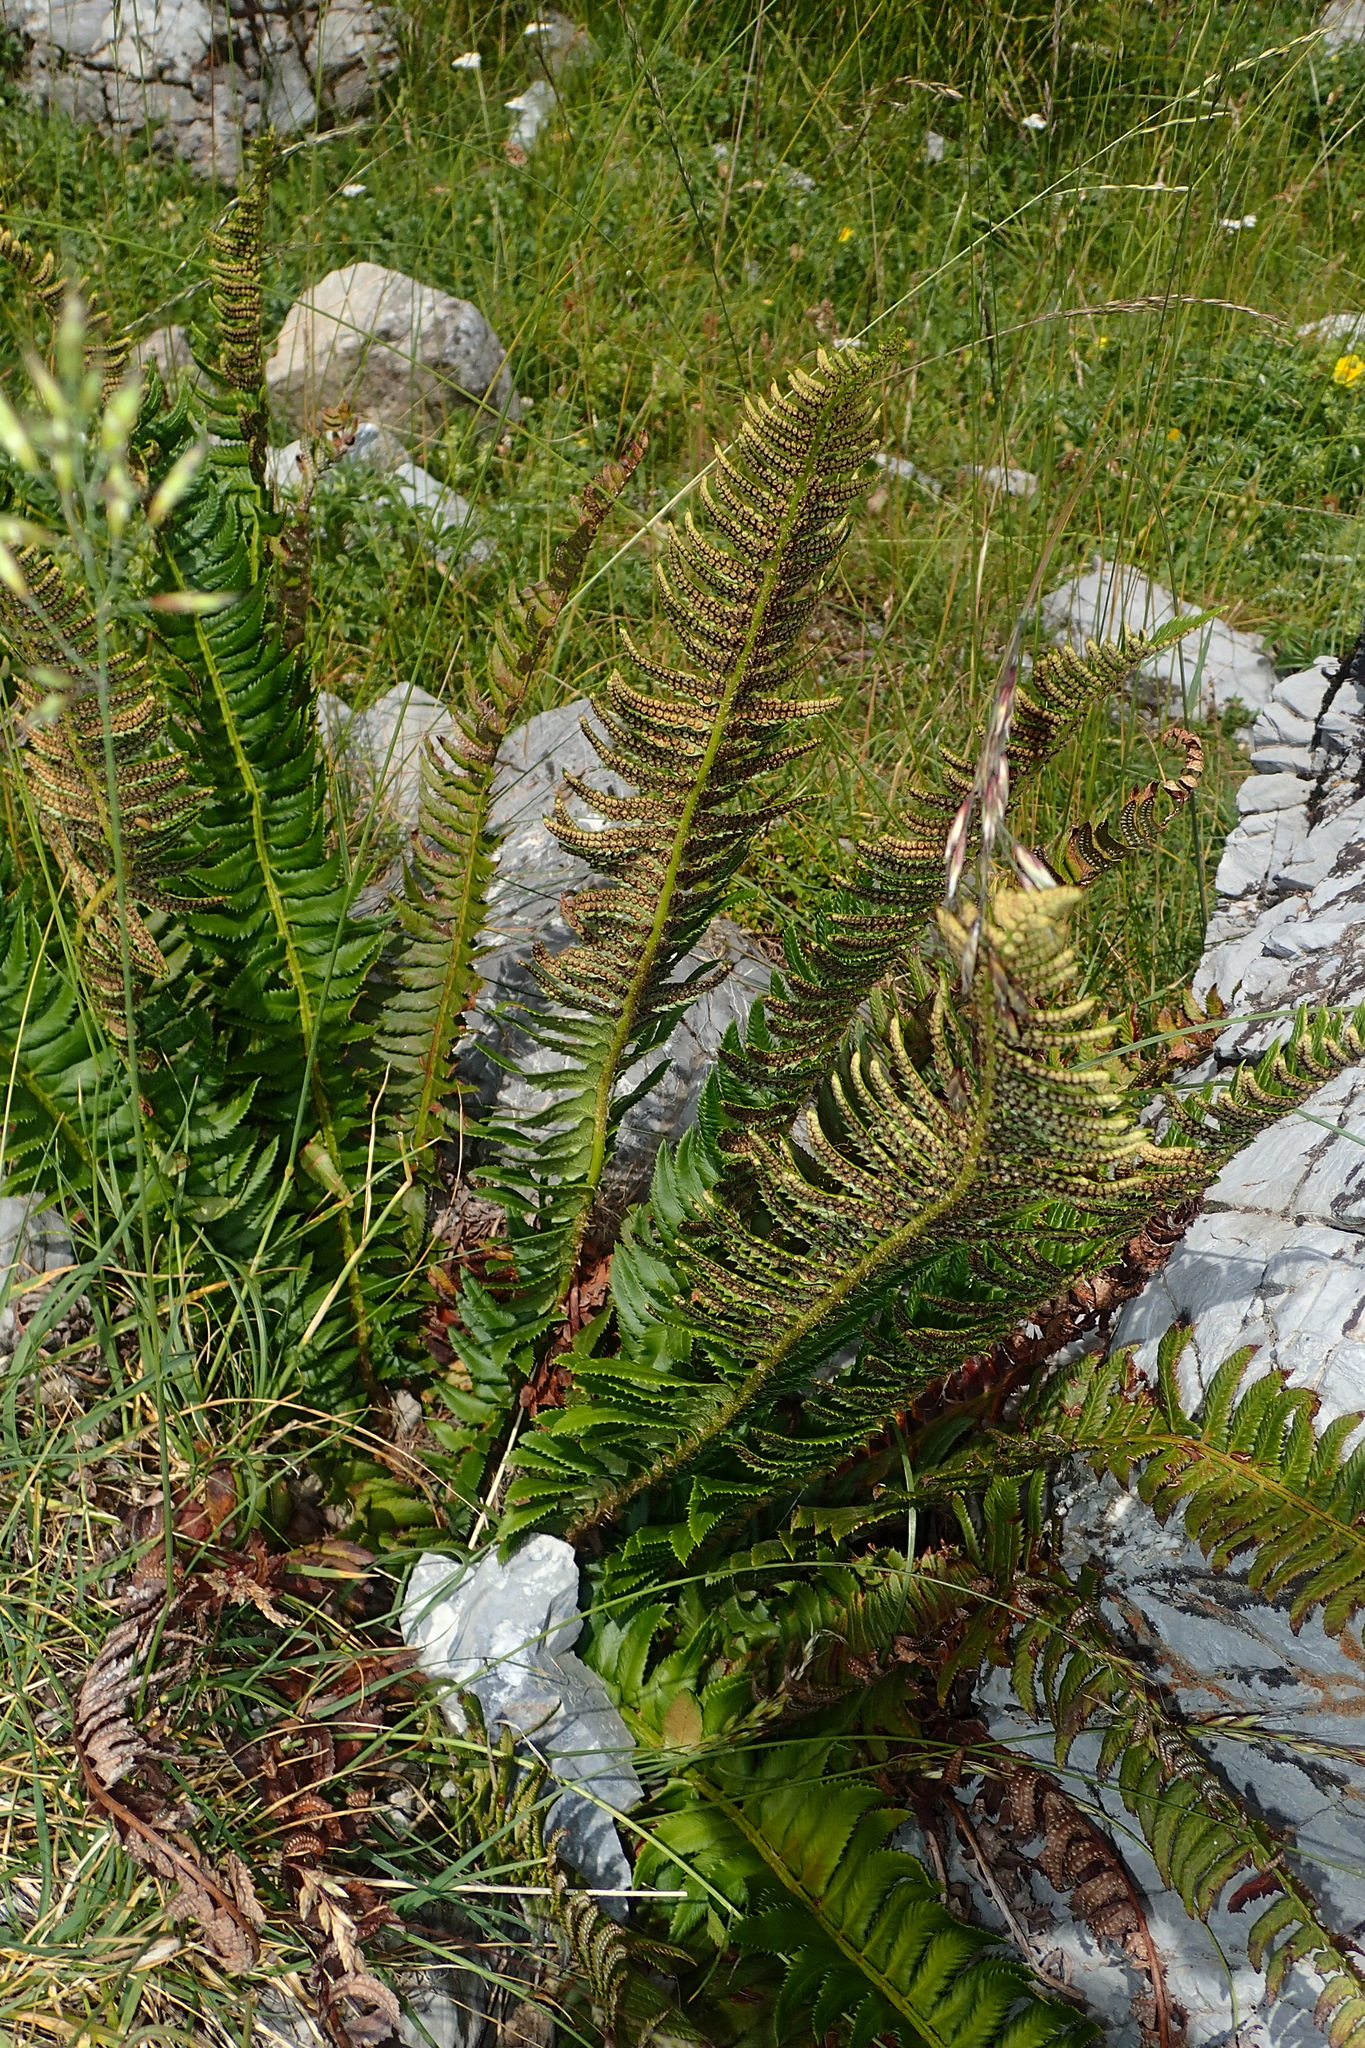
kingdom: Plantae
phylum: Tracheophyta
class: Polypodiopsida
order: Polypodiales
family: Dryopteridaceae
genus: Polystichum
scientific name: Polystichum lonchitis
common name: Holly fern
